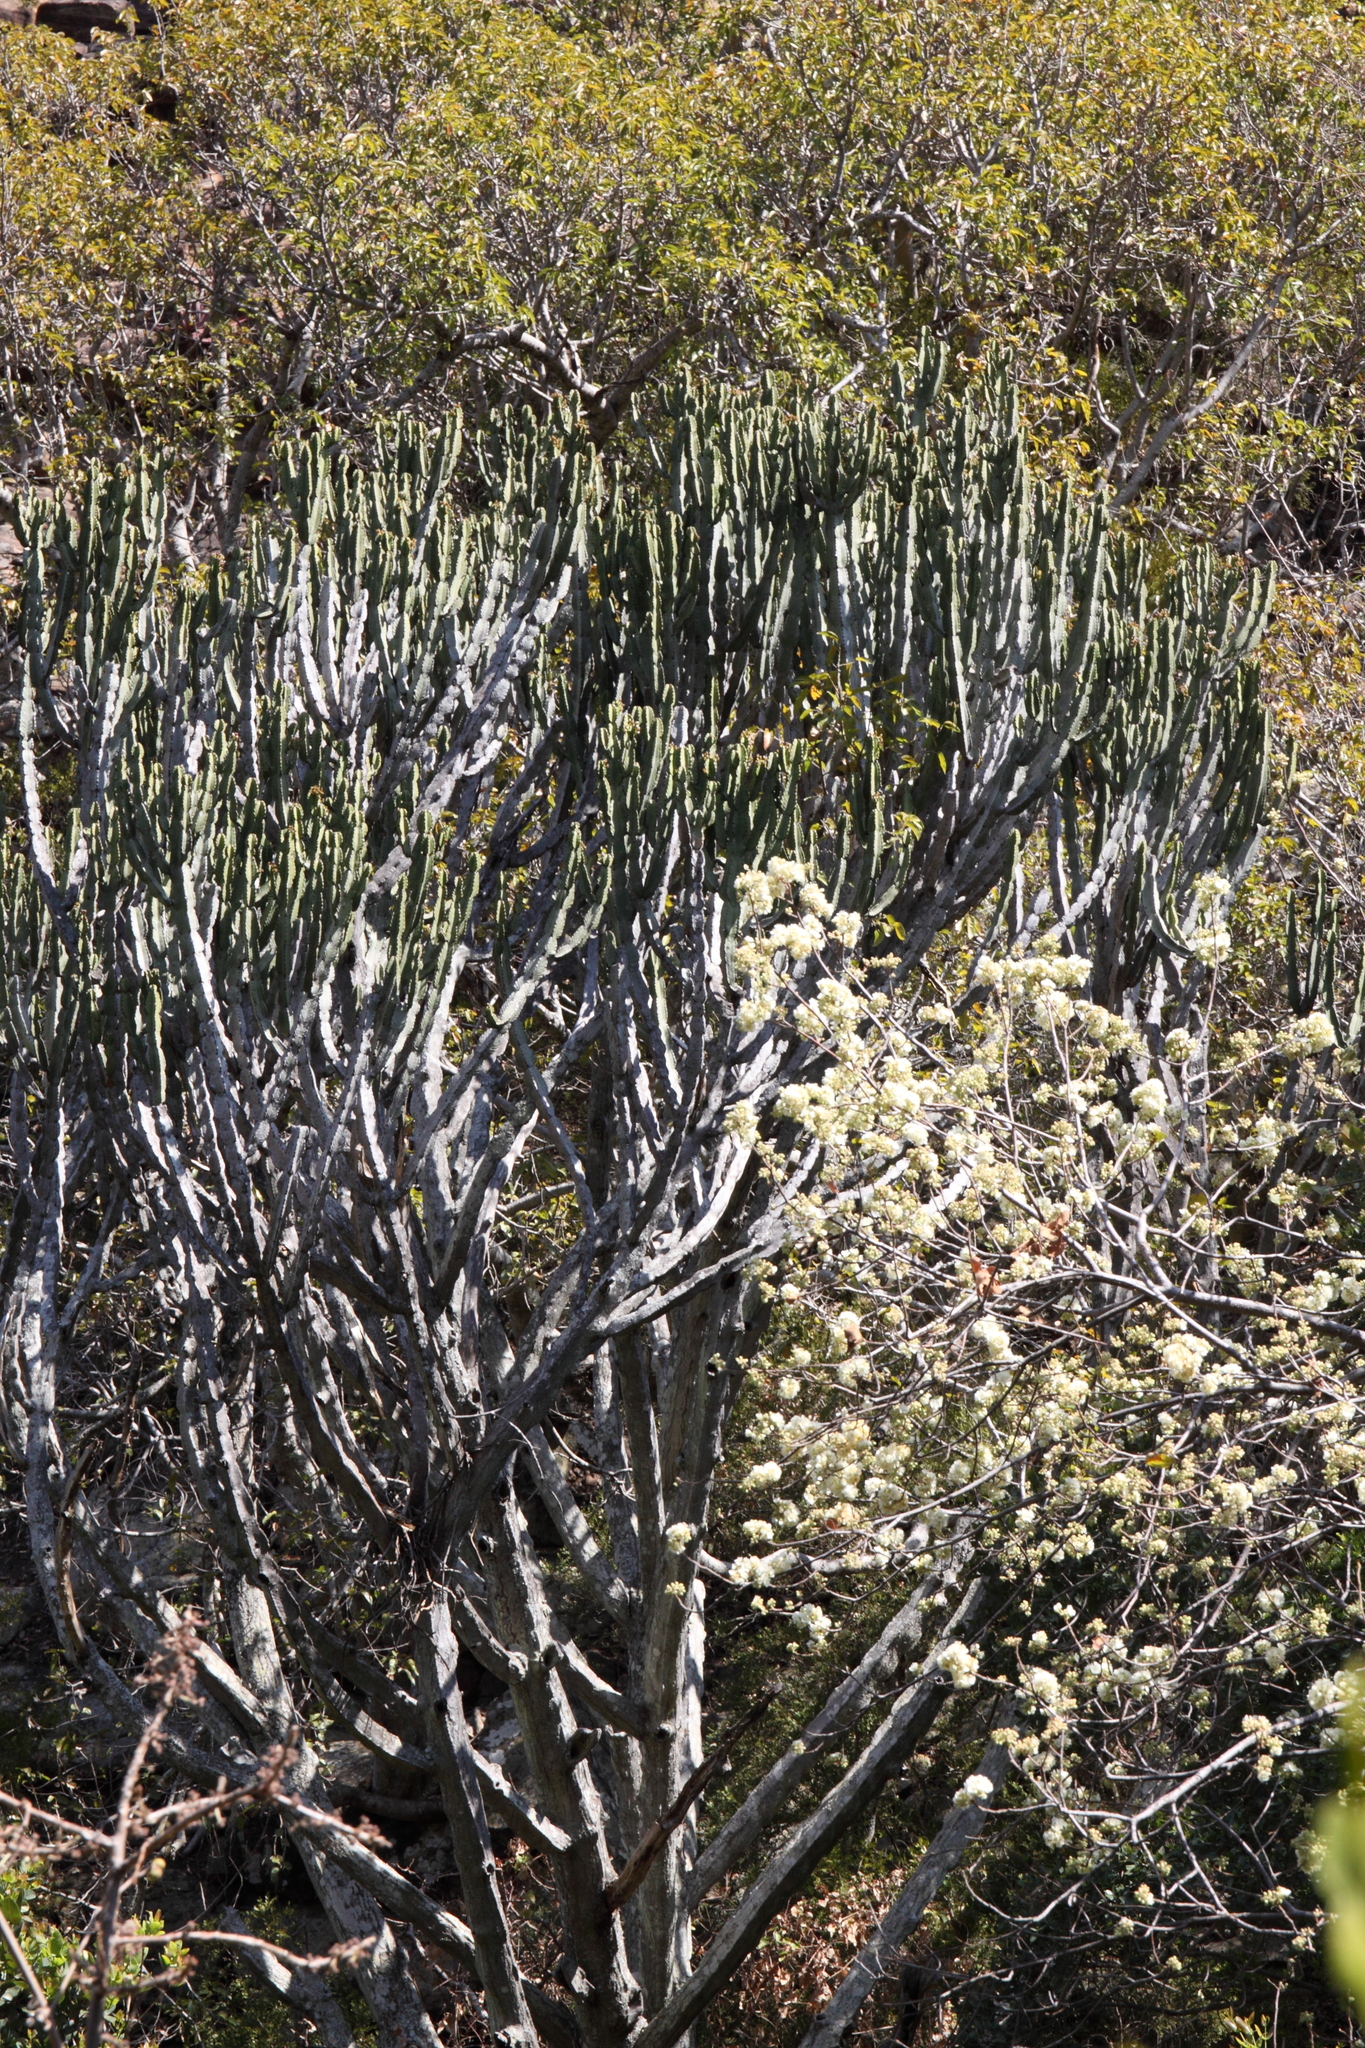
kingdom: Plantae
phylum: Tracheophyta
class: Magnoliopsida
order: Malpighiales
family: Euphorbiaceae
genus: Euphorbia
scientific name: Euphorbia ingens
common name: Cactus spurge
